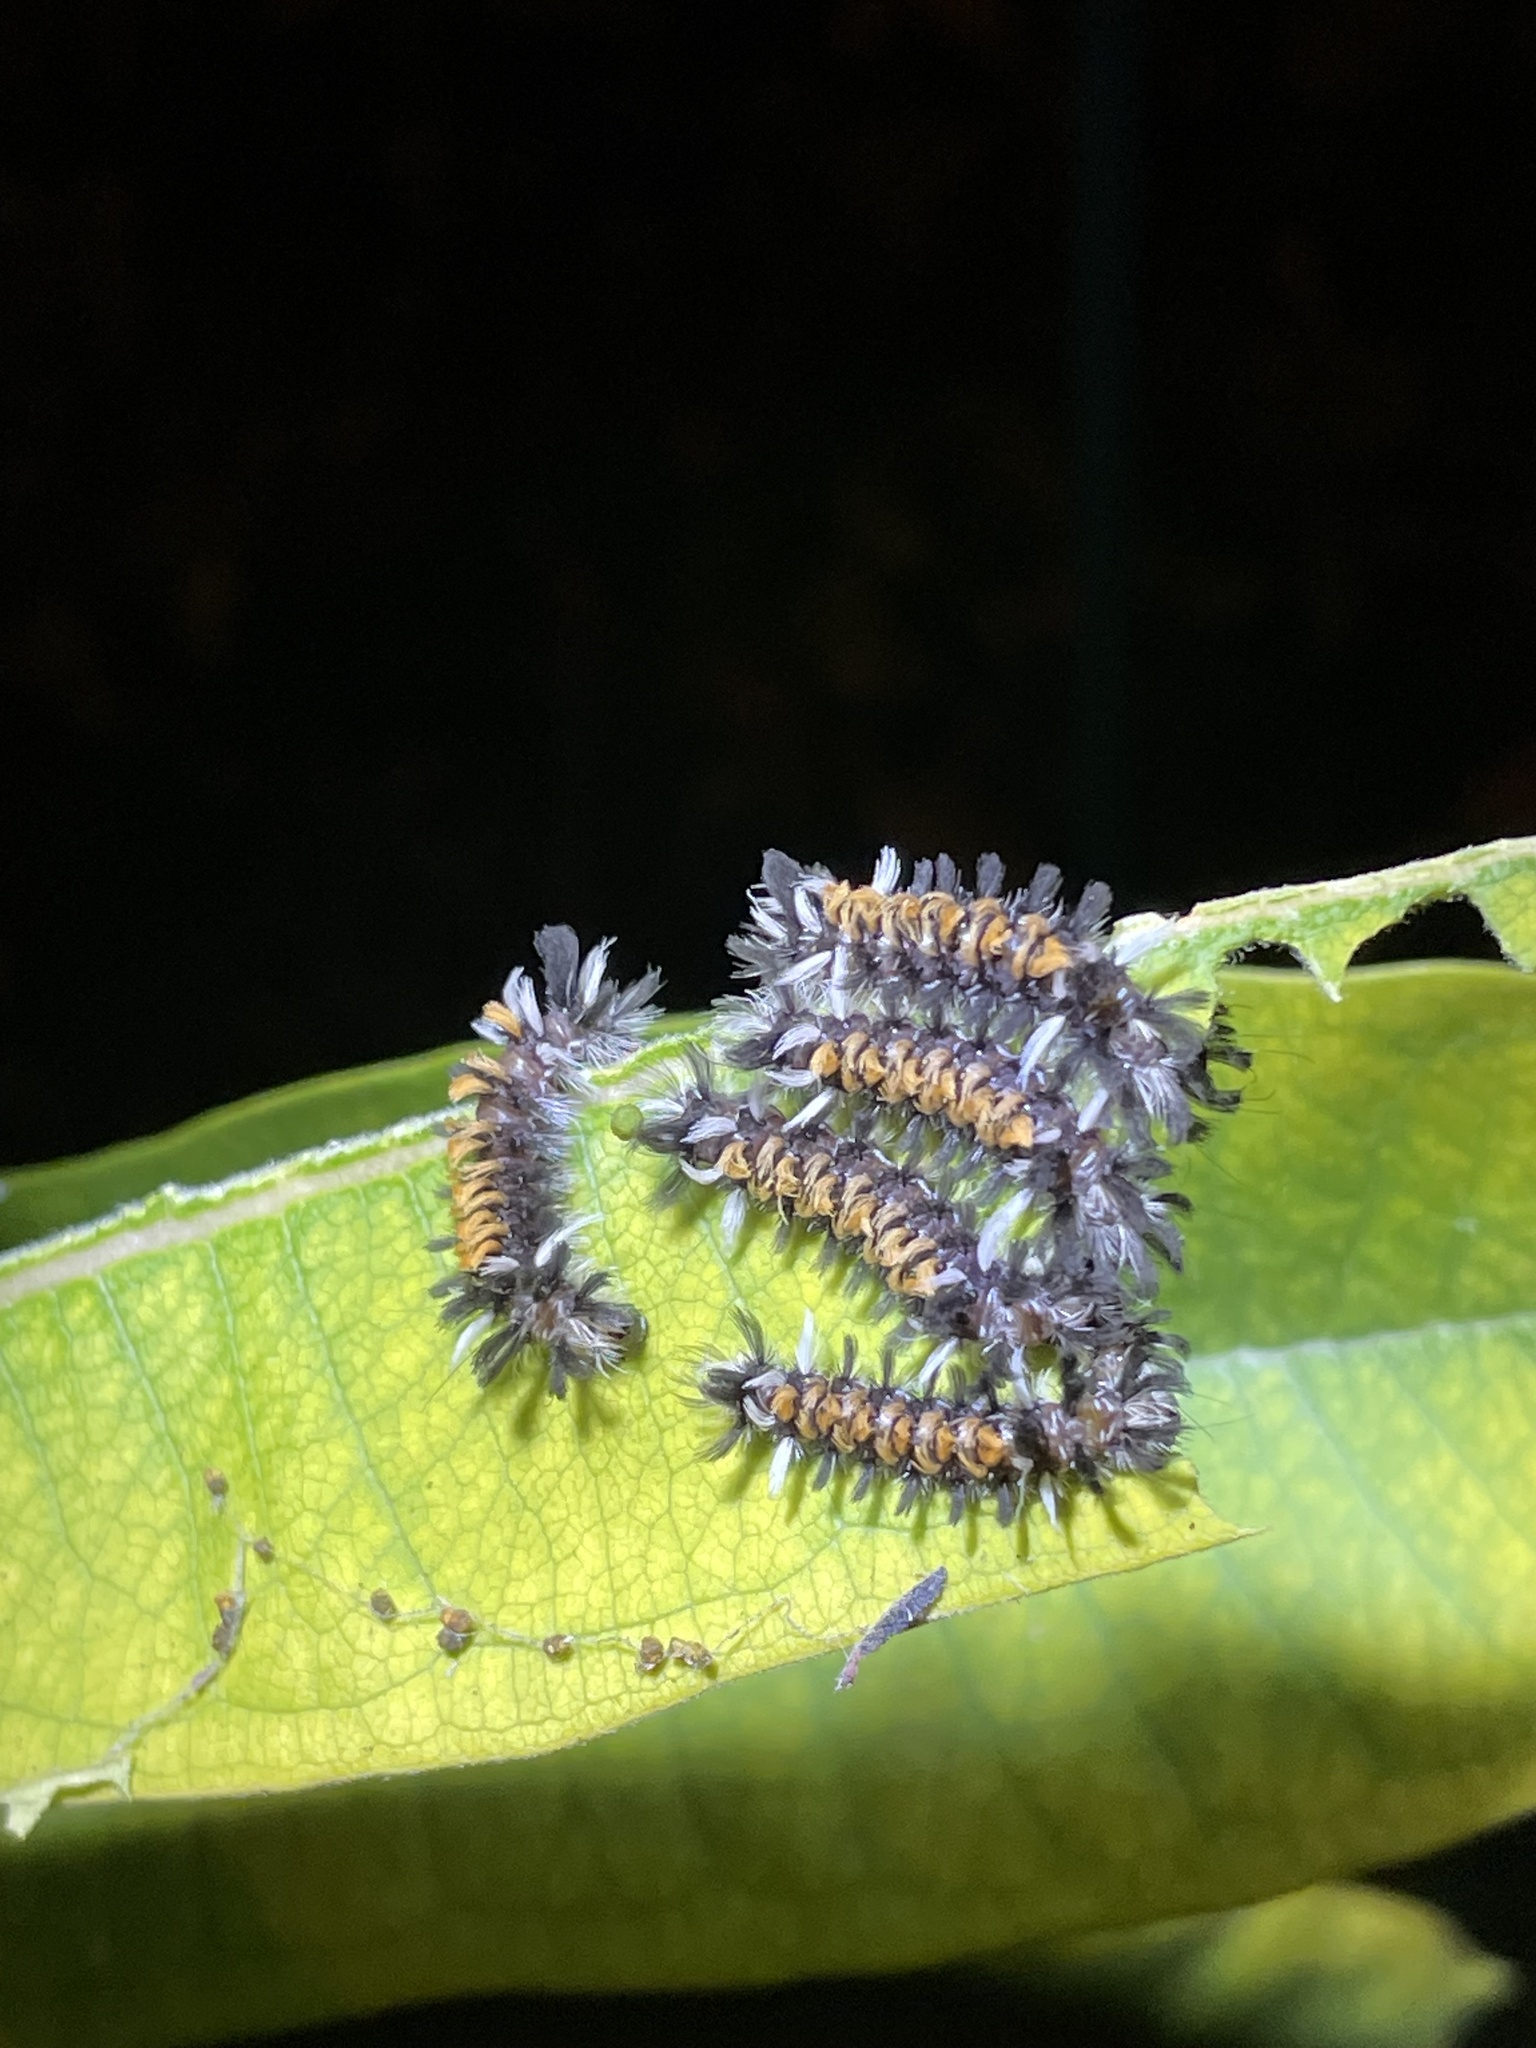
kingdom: Animalia
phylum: Arthropoda
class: Insecta
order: Lepidoptera
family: Erebidae
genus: Euchaetes
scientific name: Euchaetes egle
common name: Milkweed tussock moth
